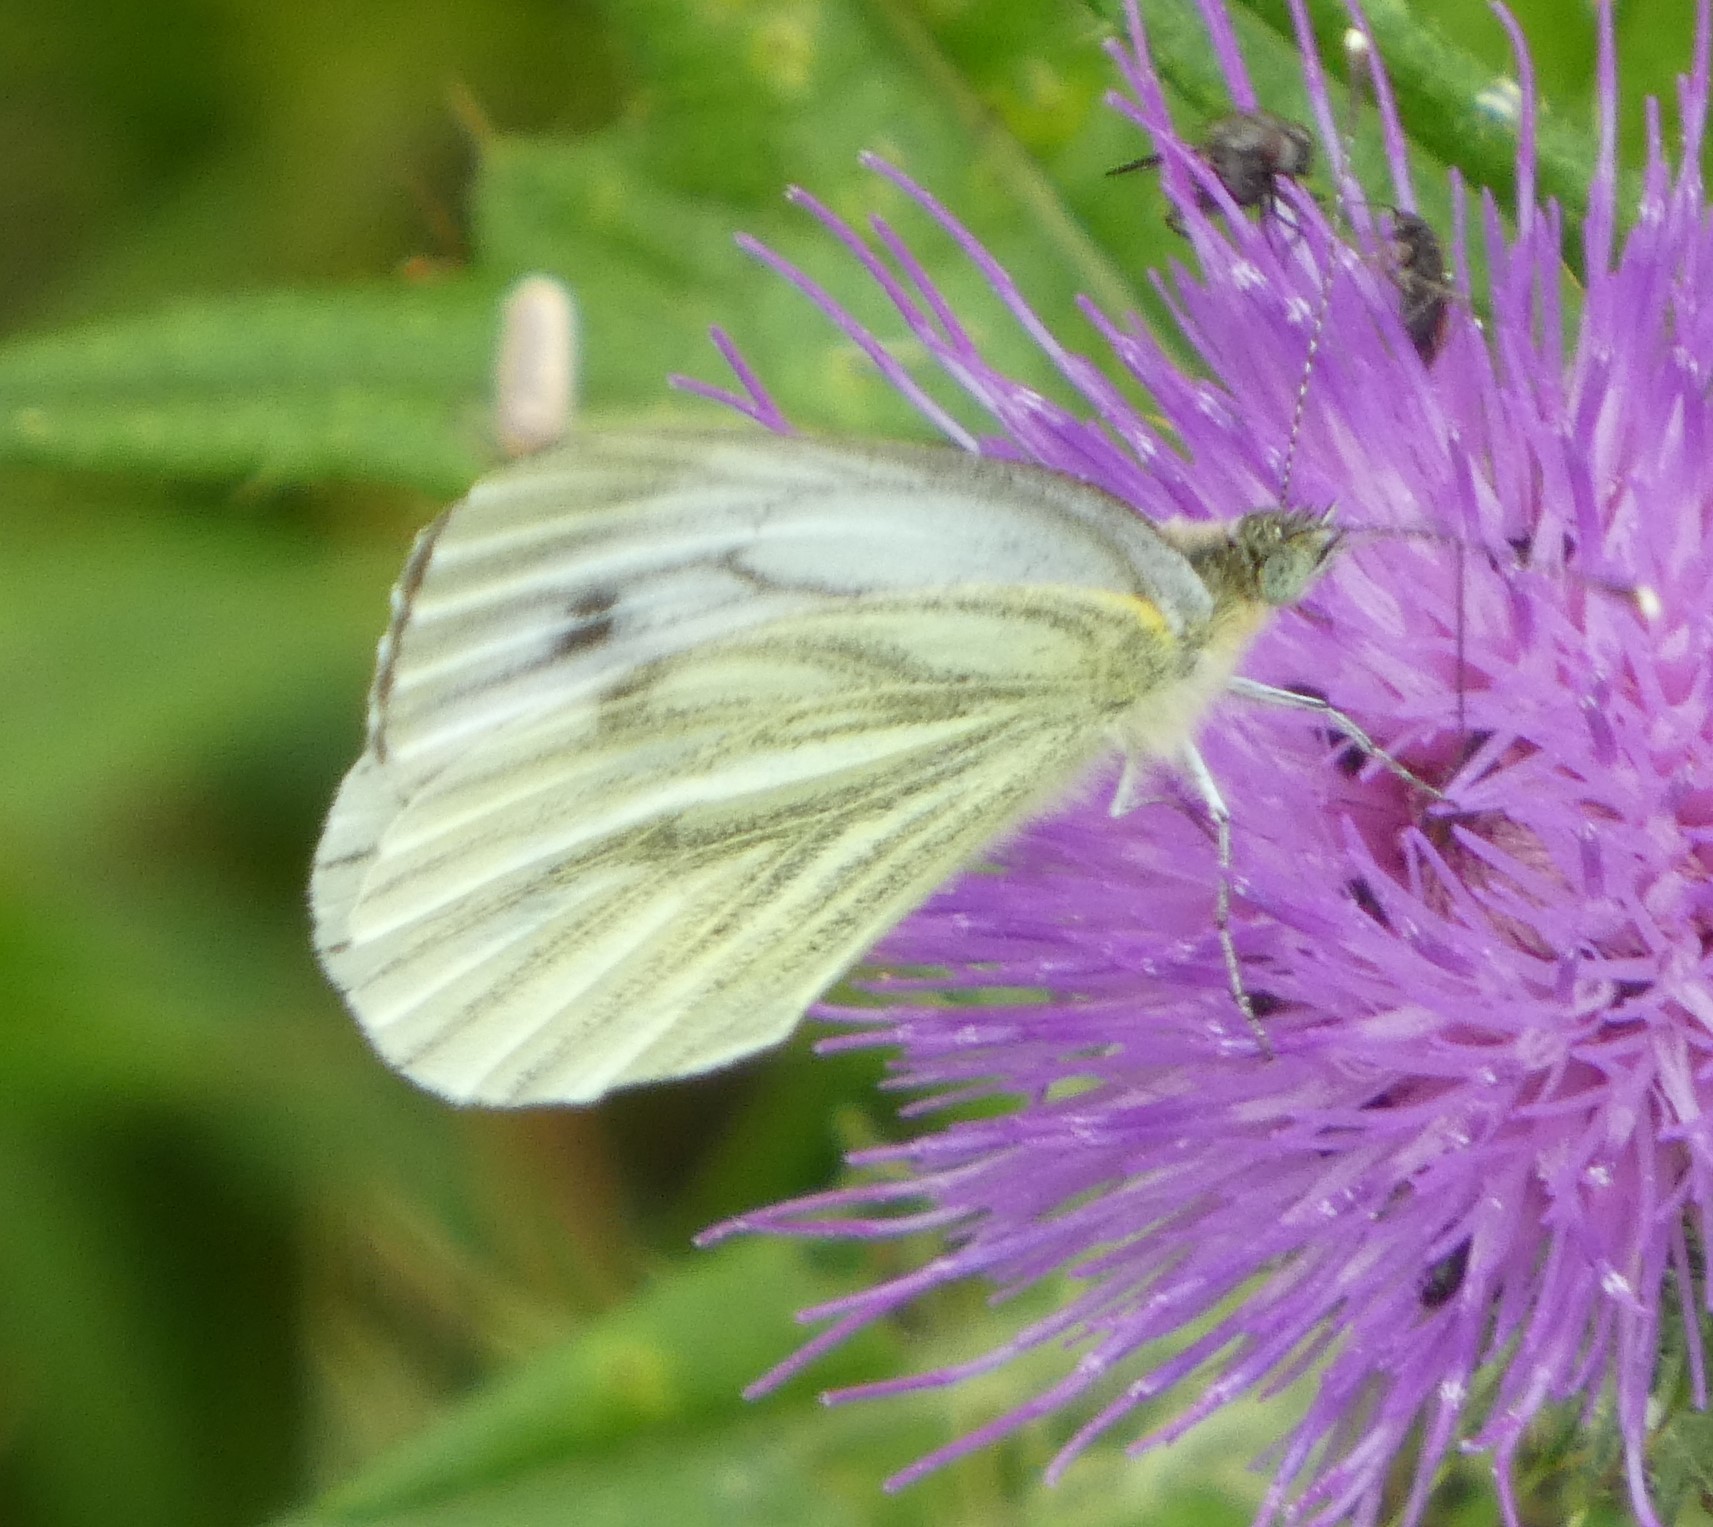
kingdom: Animalia
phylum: Arthropoda
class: Insecta
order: Lepidoptera
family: Pieridae
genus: Pieris
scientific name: Pieris napi
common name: Green-veined white
